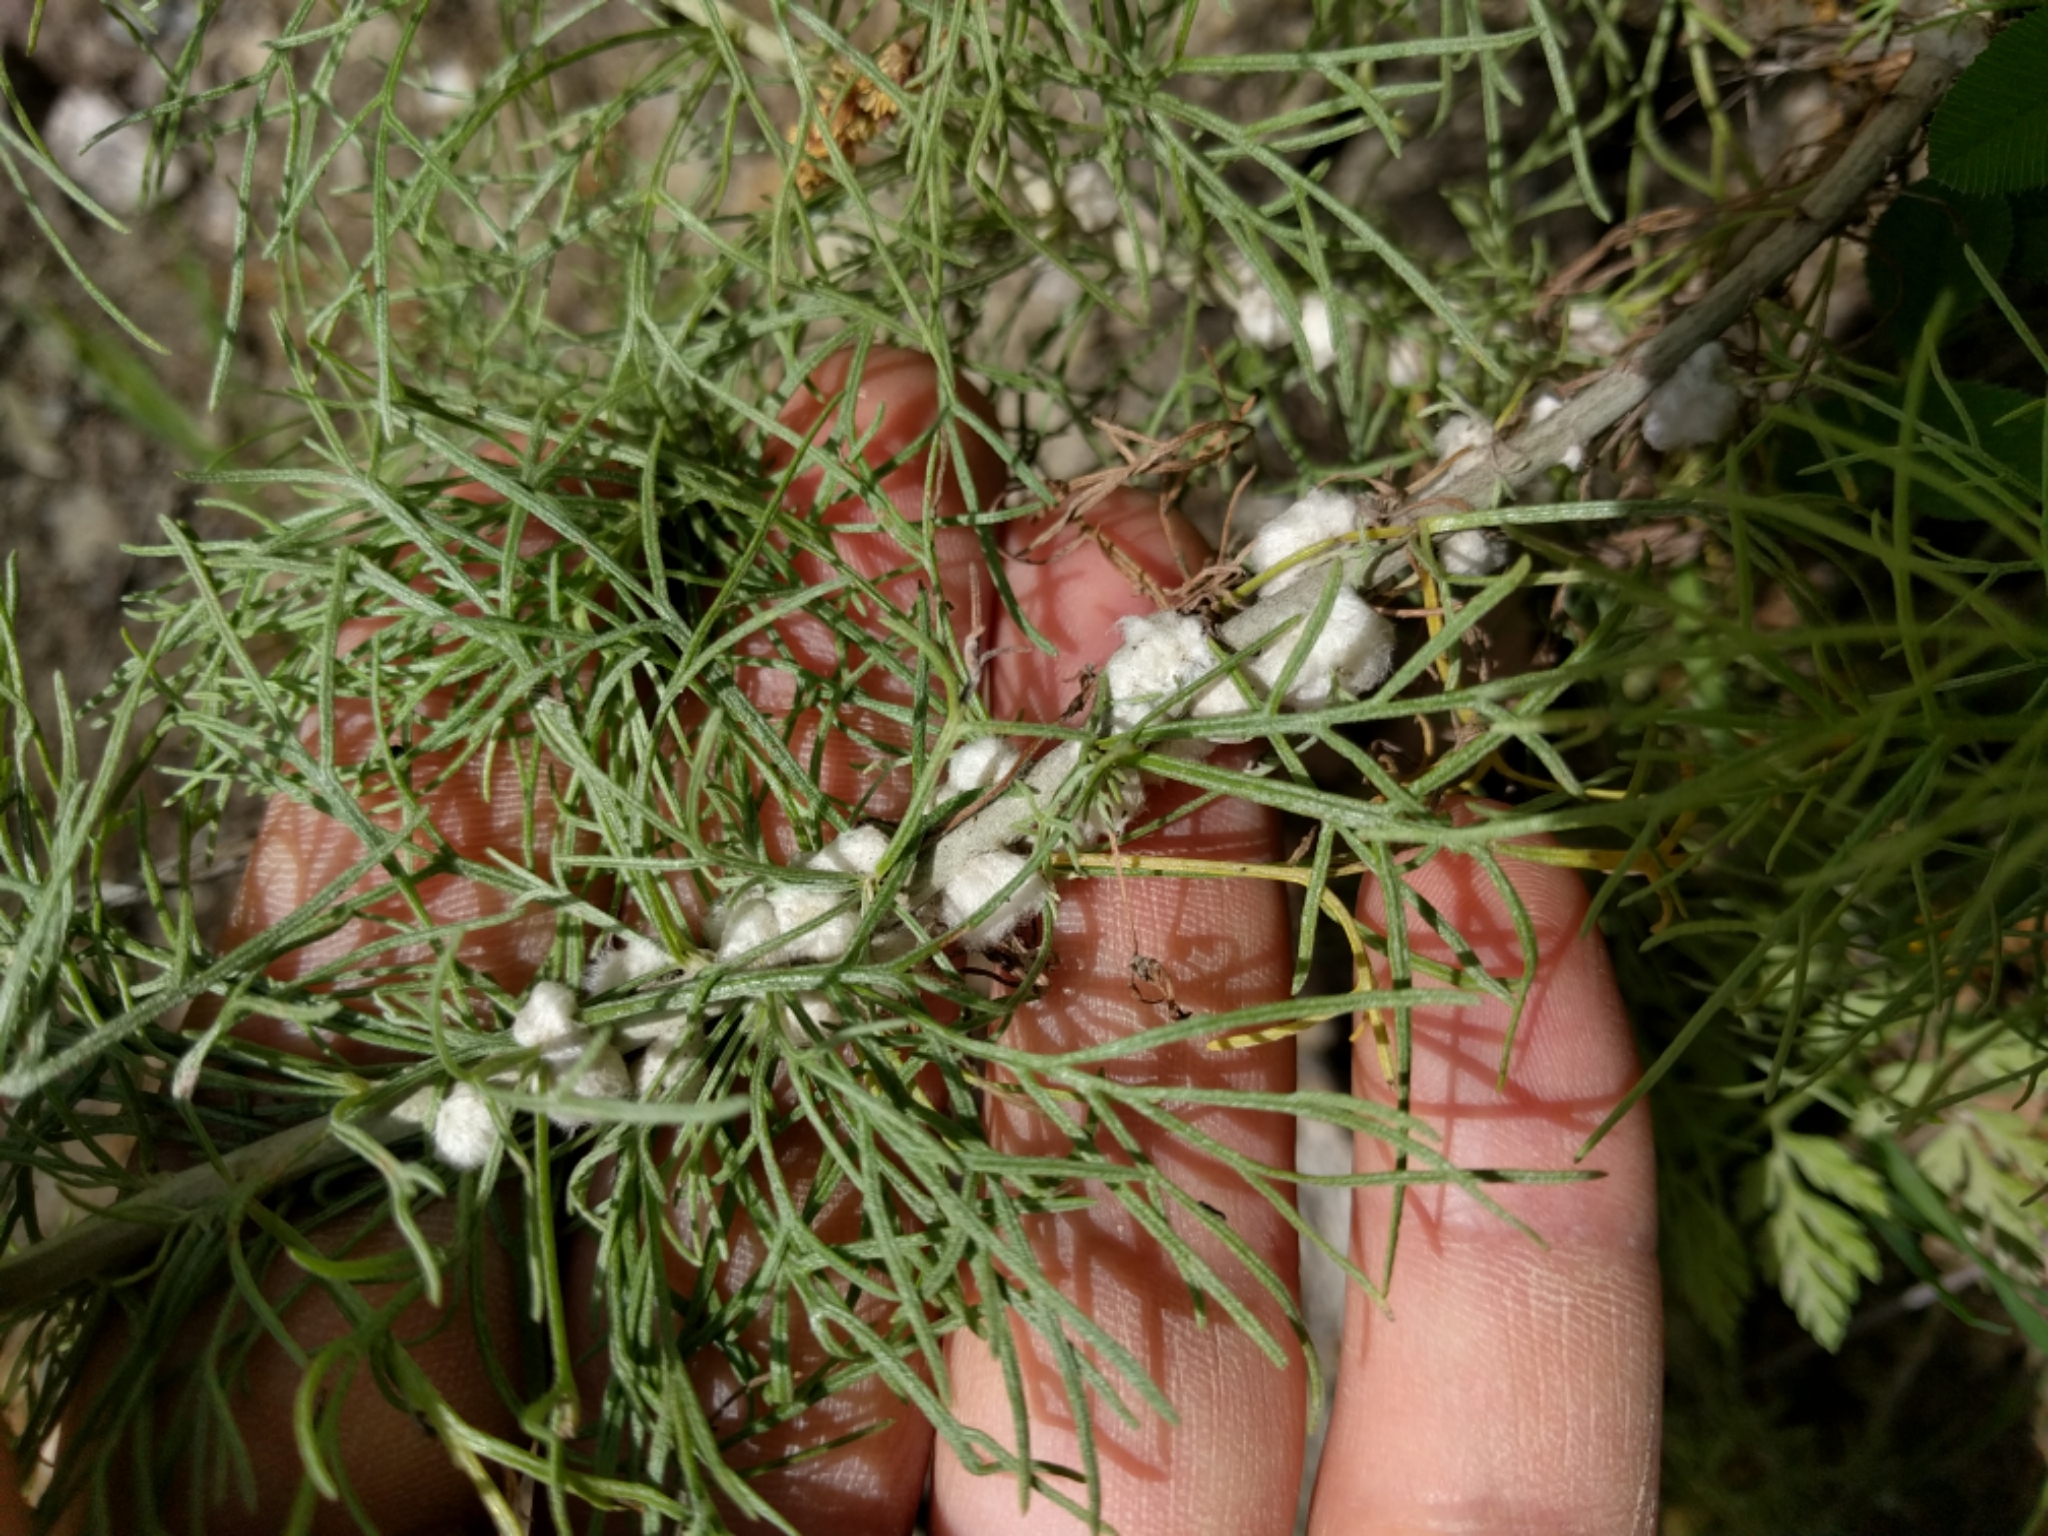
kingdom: Animalia
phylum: Arthropoda
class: Insecta
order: Diptera
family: Cecidomyiidae
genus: Rhopalomyia
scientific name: Rhopalomyia floccosa
